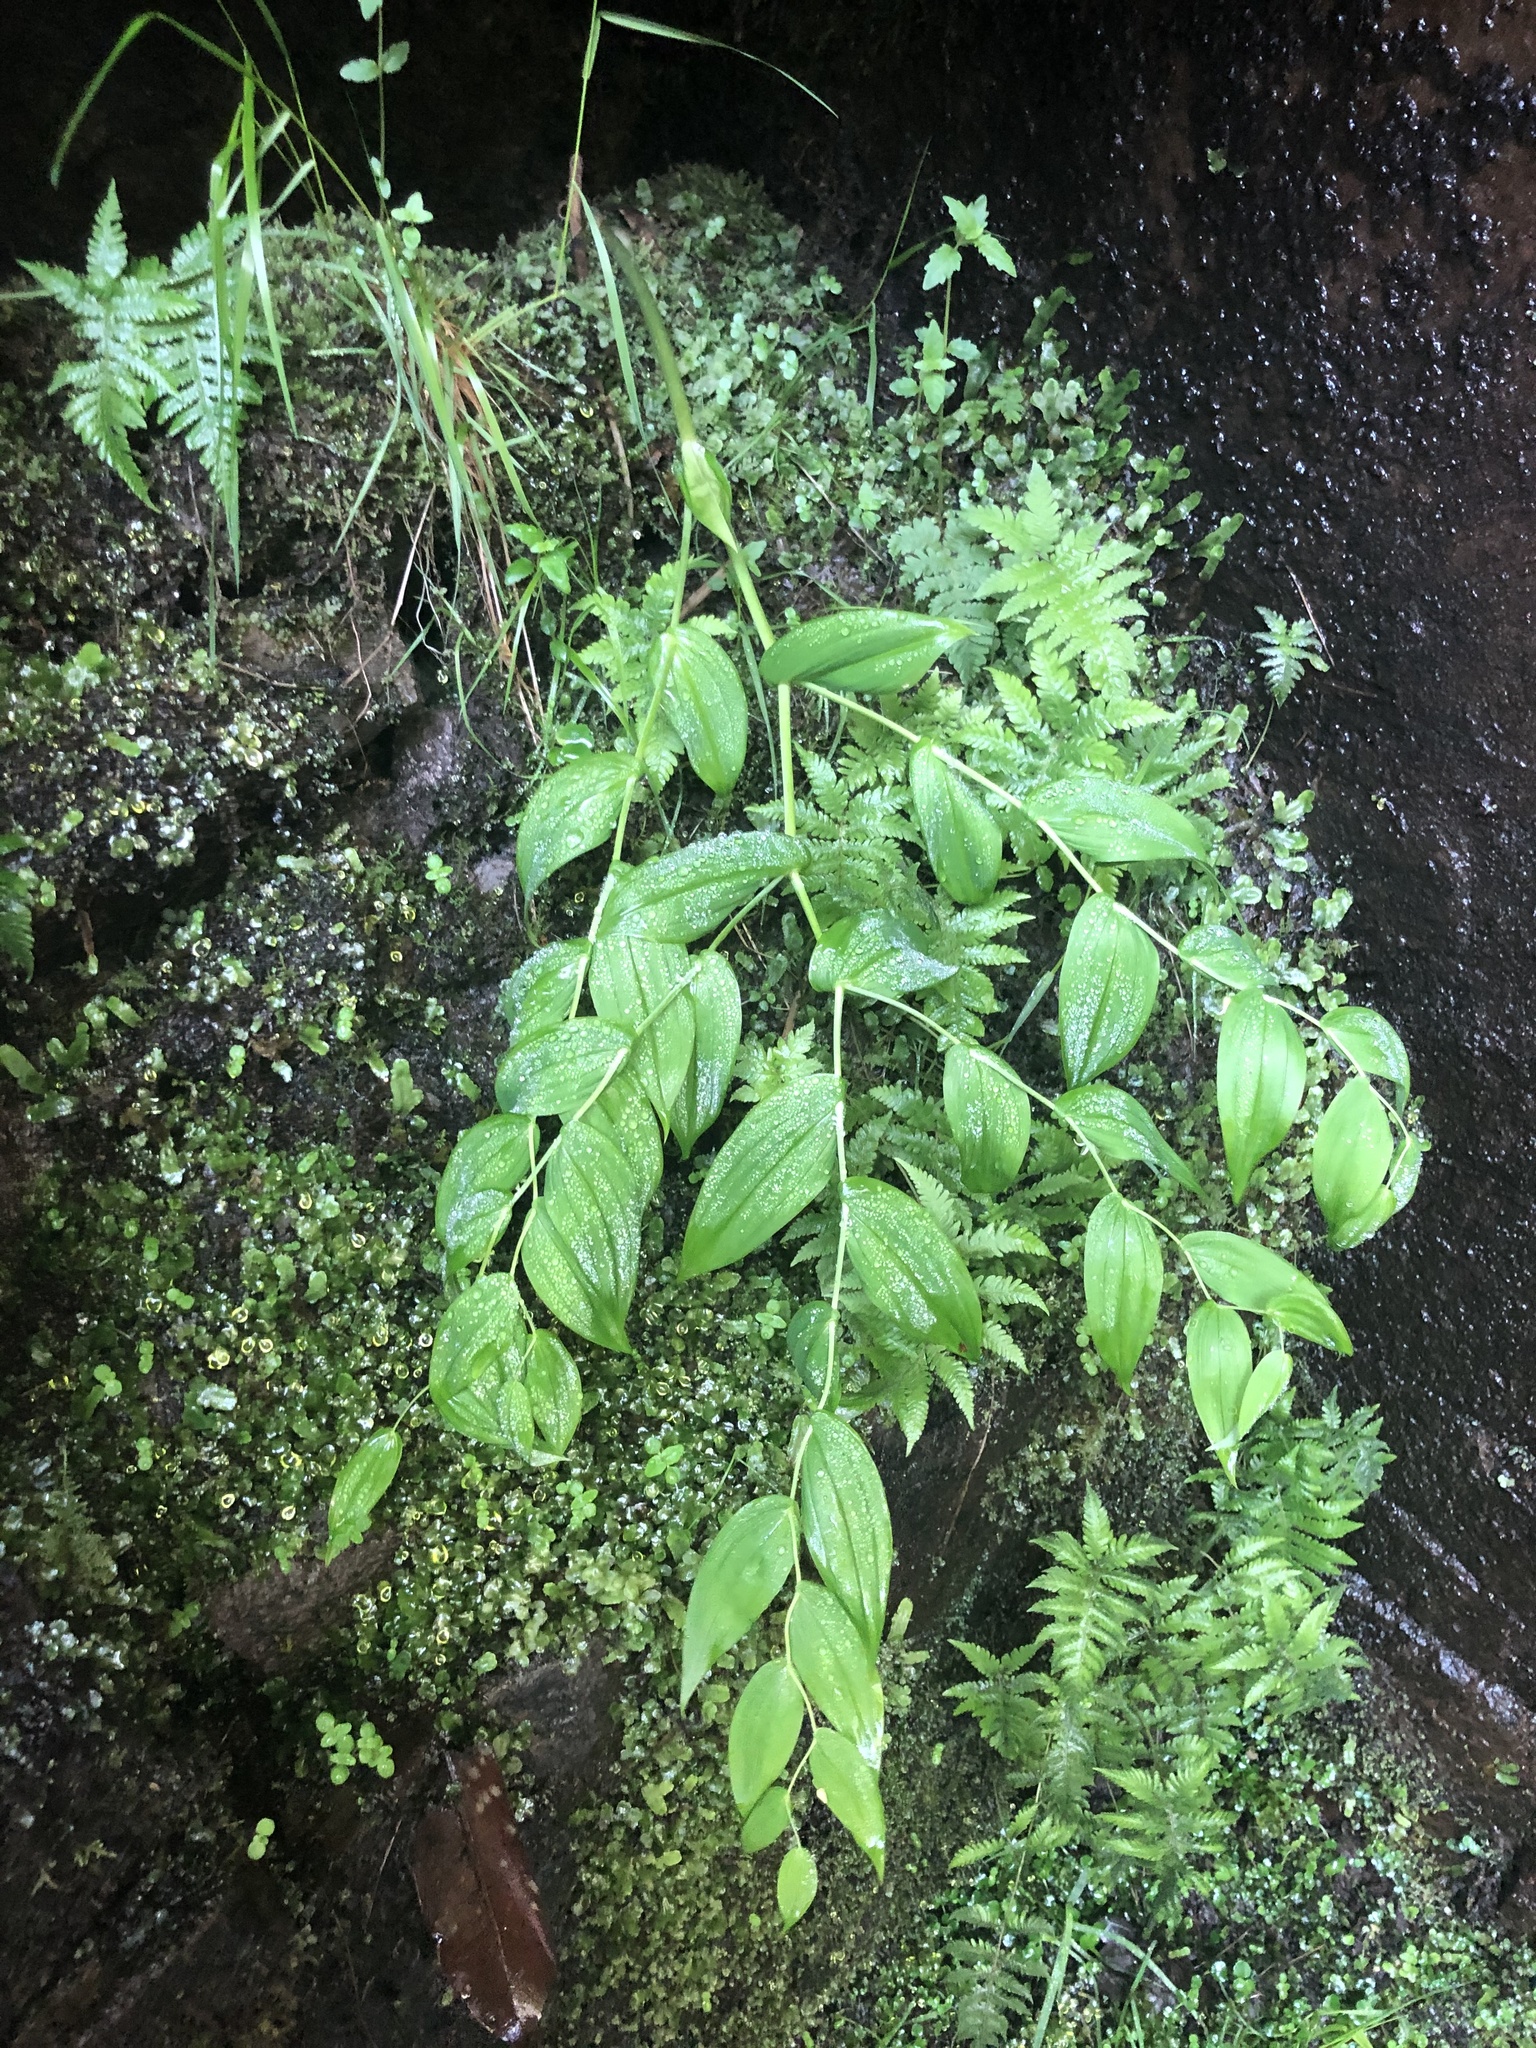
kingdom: Plantae
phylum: Tracheophyta
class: Liliopsida
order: Liliales
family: Liliaceae
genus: Streptopus
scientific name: Streptopus amplexifolius
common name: Clasp twisted stalk
